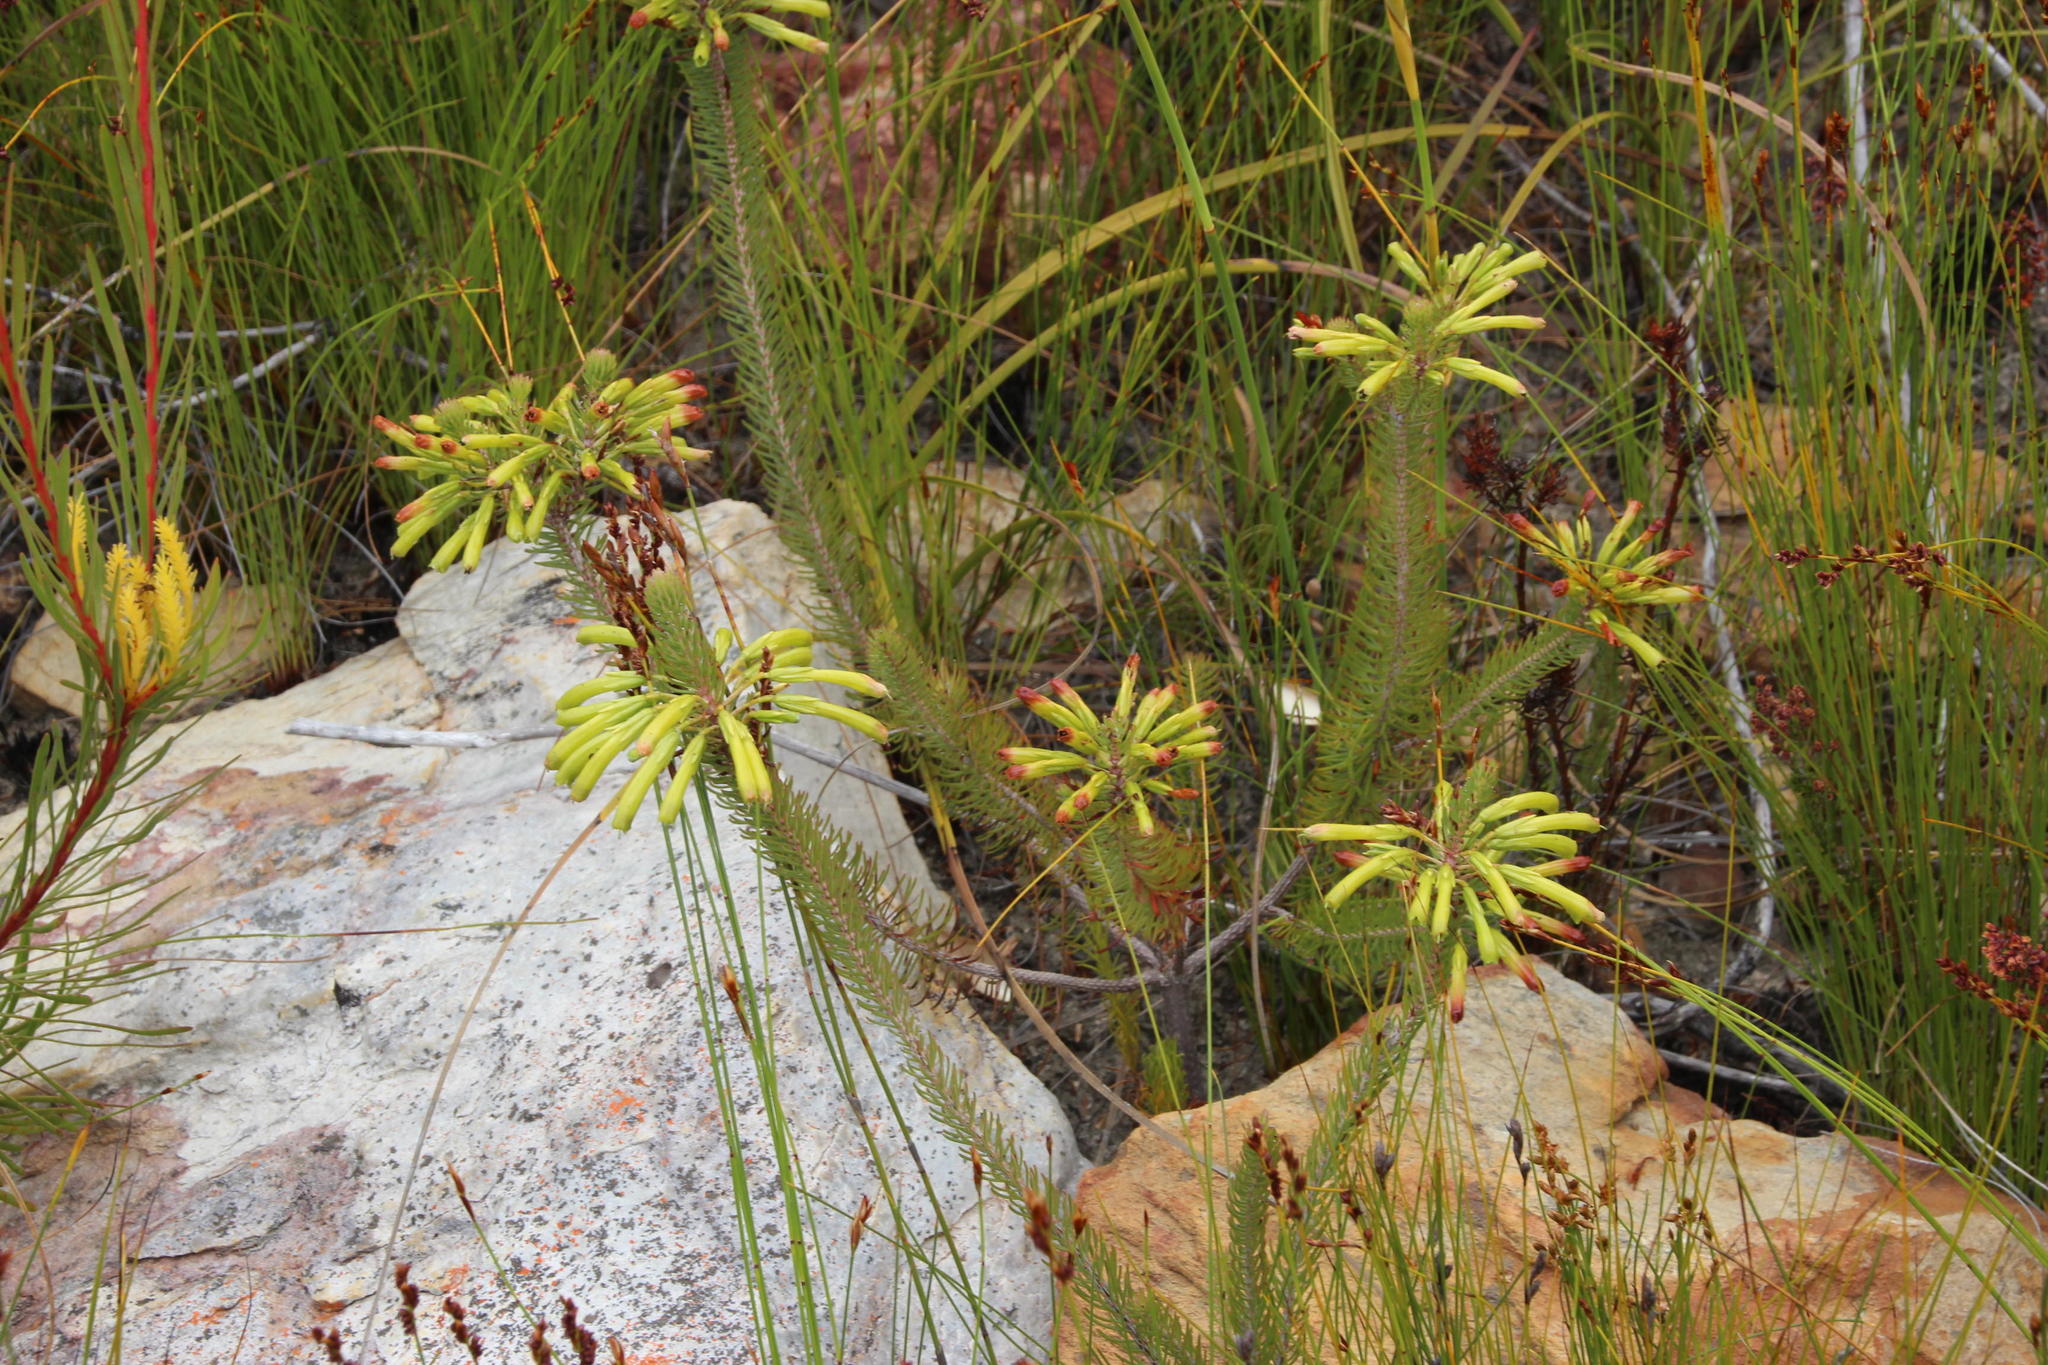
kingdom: Plantae
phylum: Tracheophyta
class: Magnoliopsida
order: Ericales
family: Ericaceae
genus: Erica
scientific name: Erica thomae
